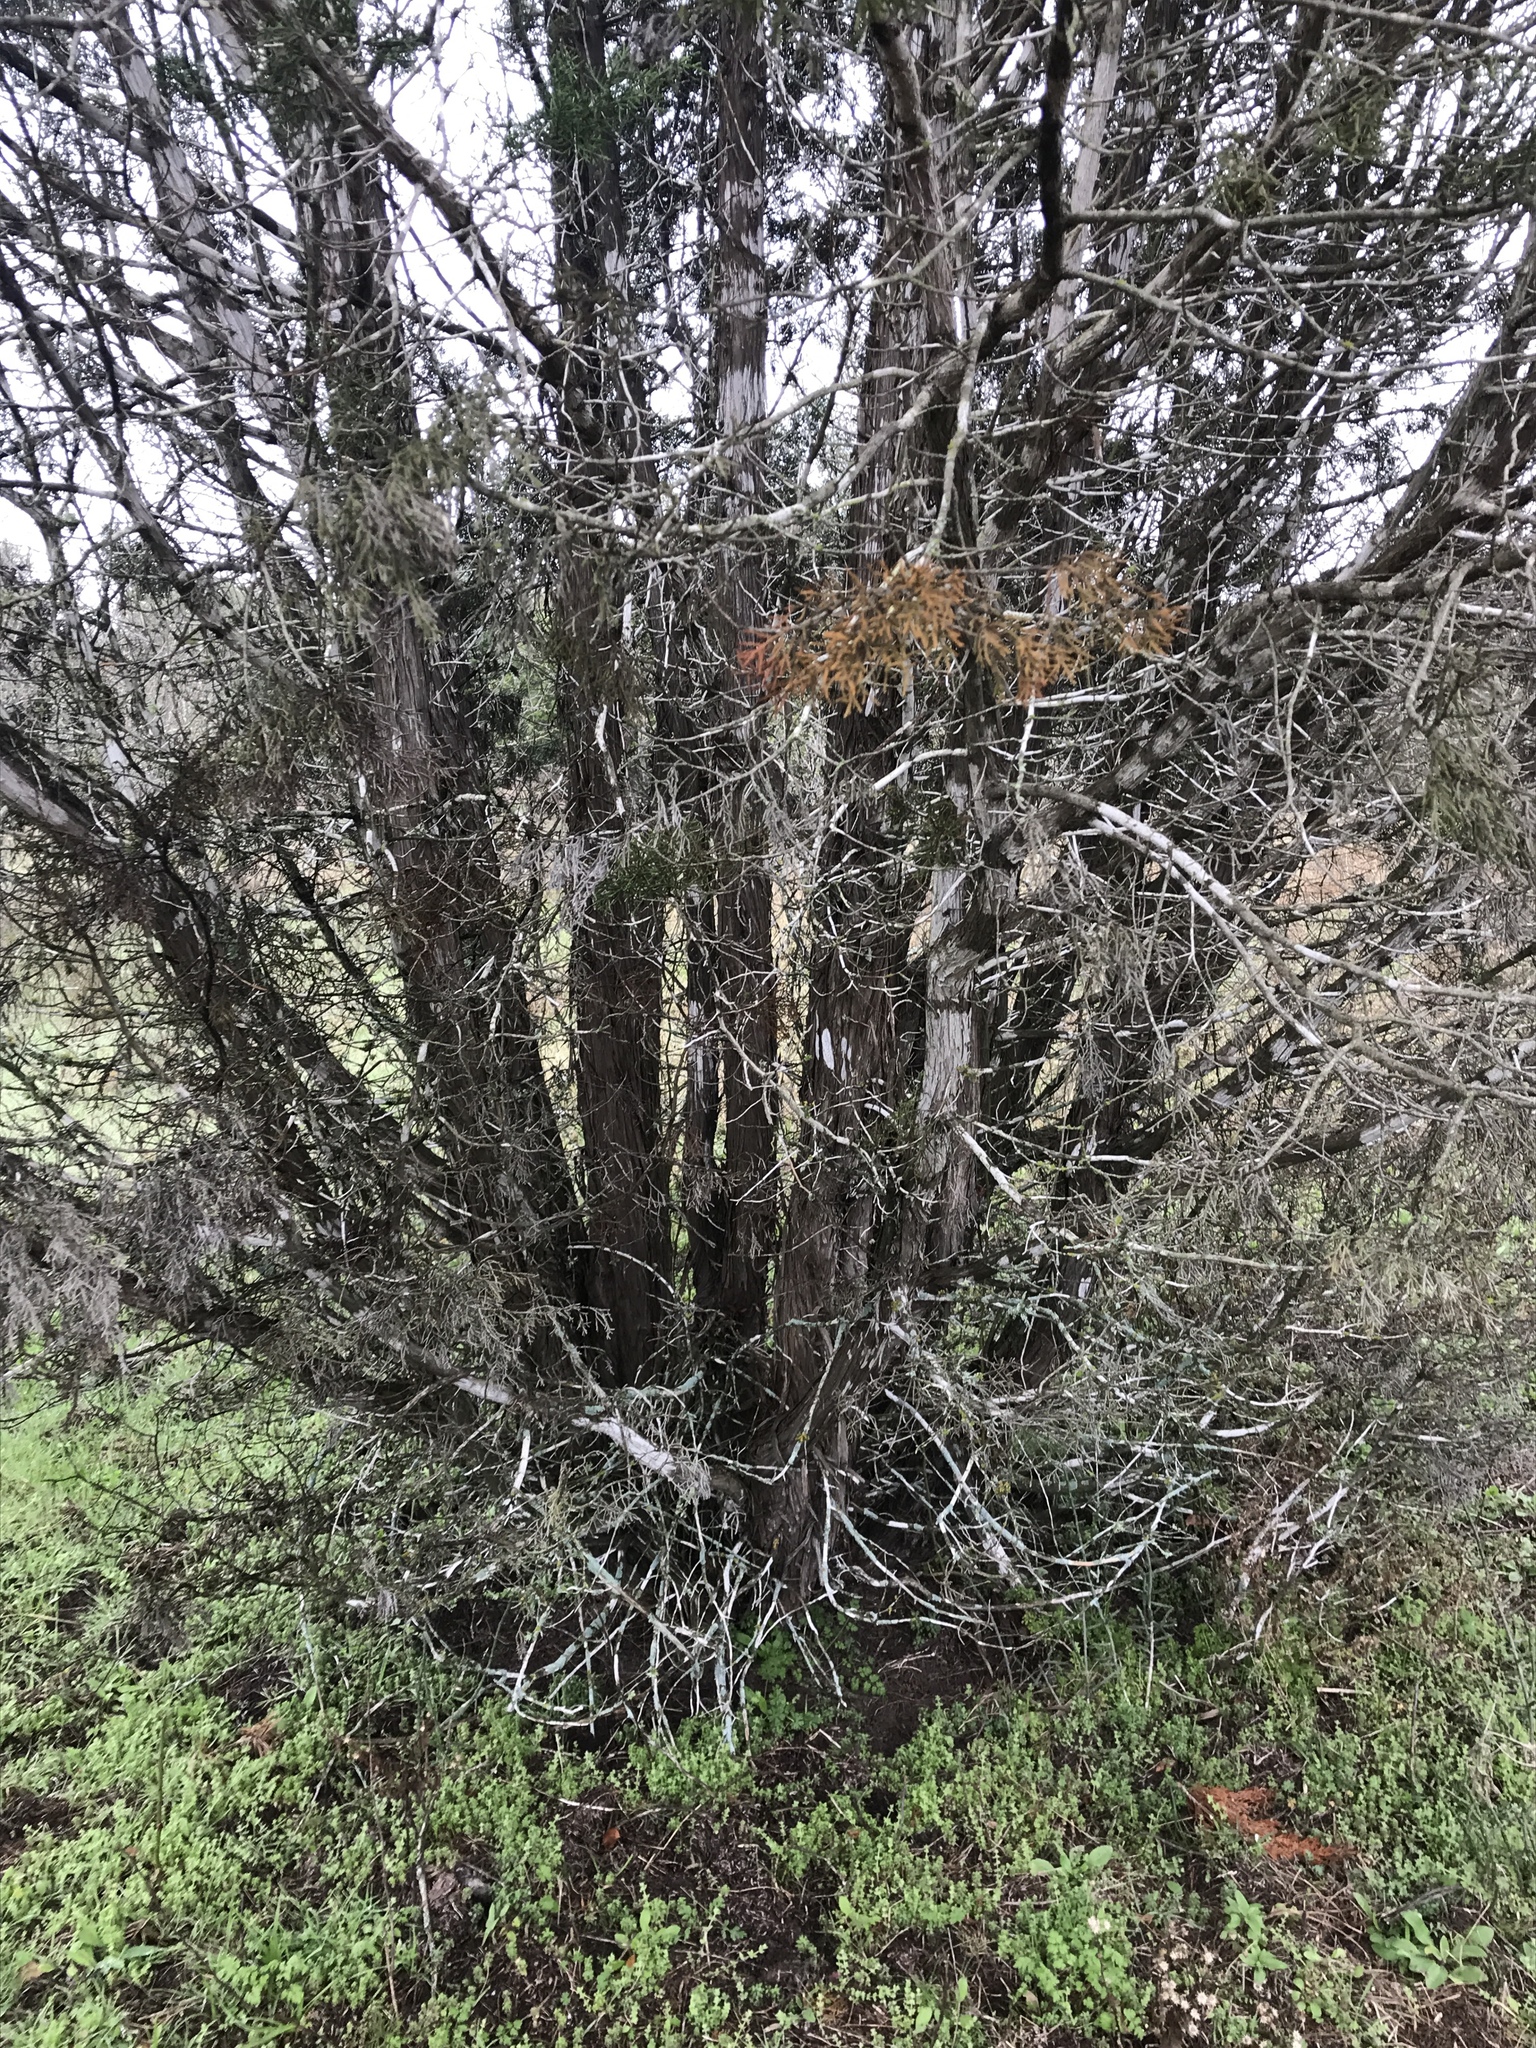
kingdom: Plantae
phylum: Tracheophyta
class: Pinopsida
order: Pinales
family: Cupressaceae
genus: Juniperus
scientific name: Juniperus ashei
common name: Mexican juniper
